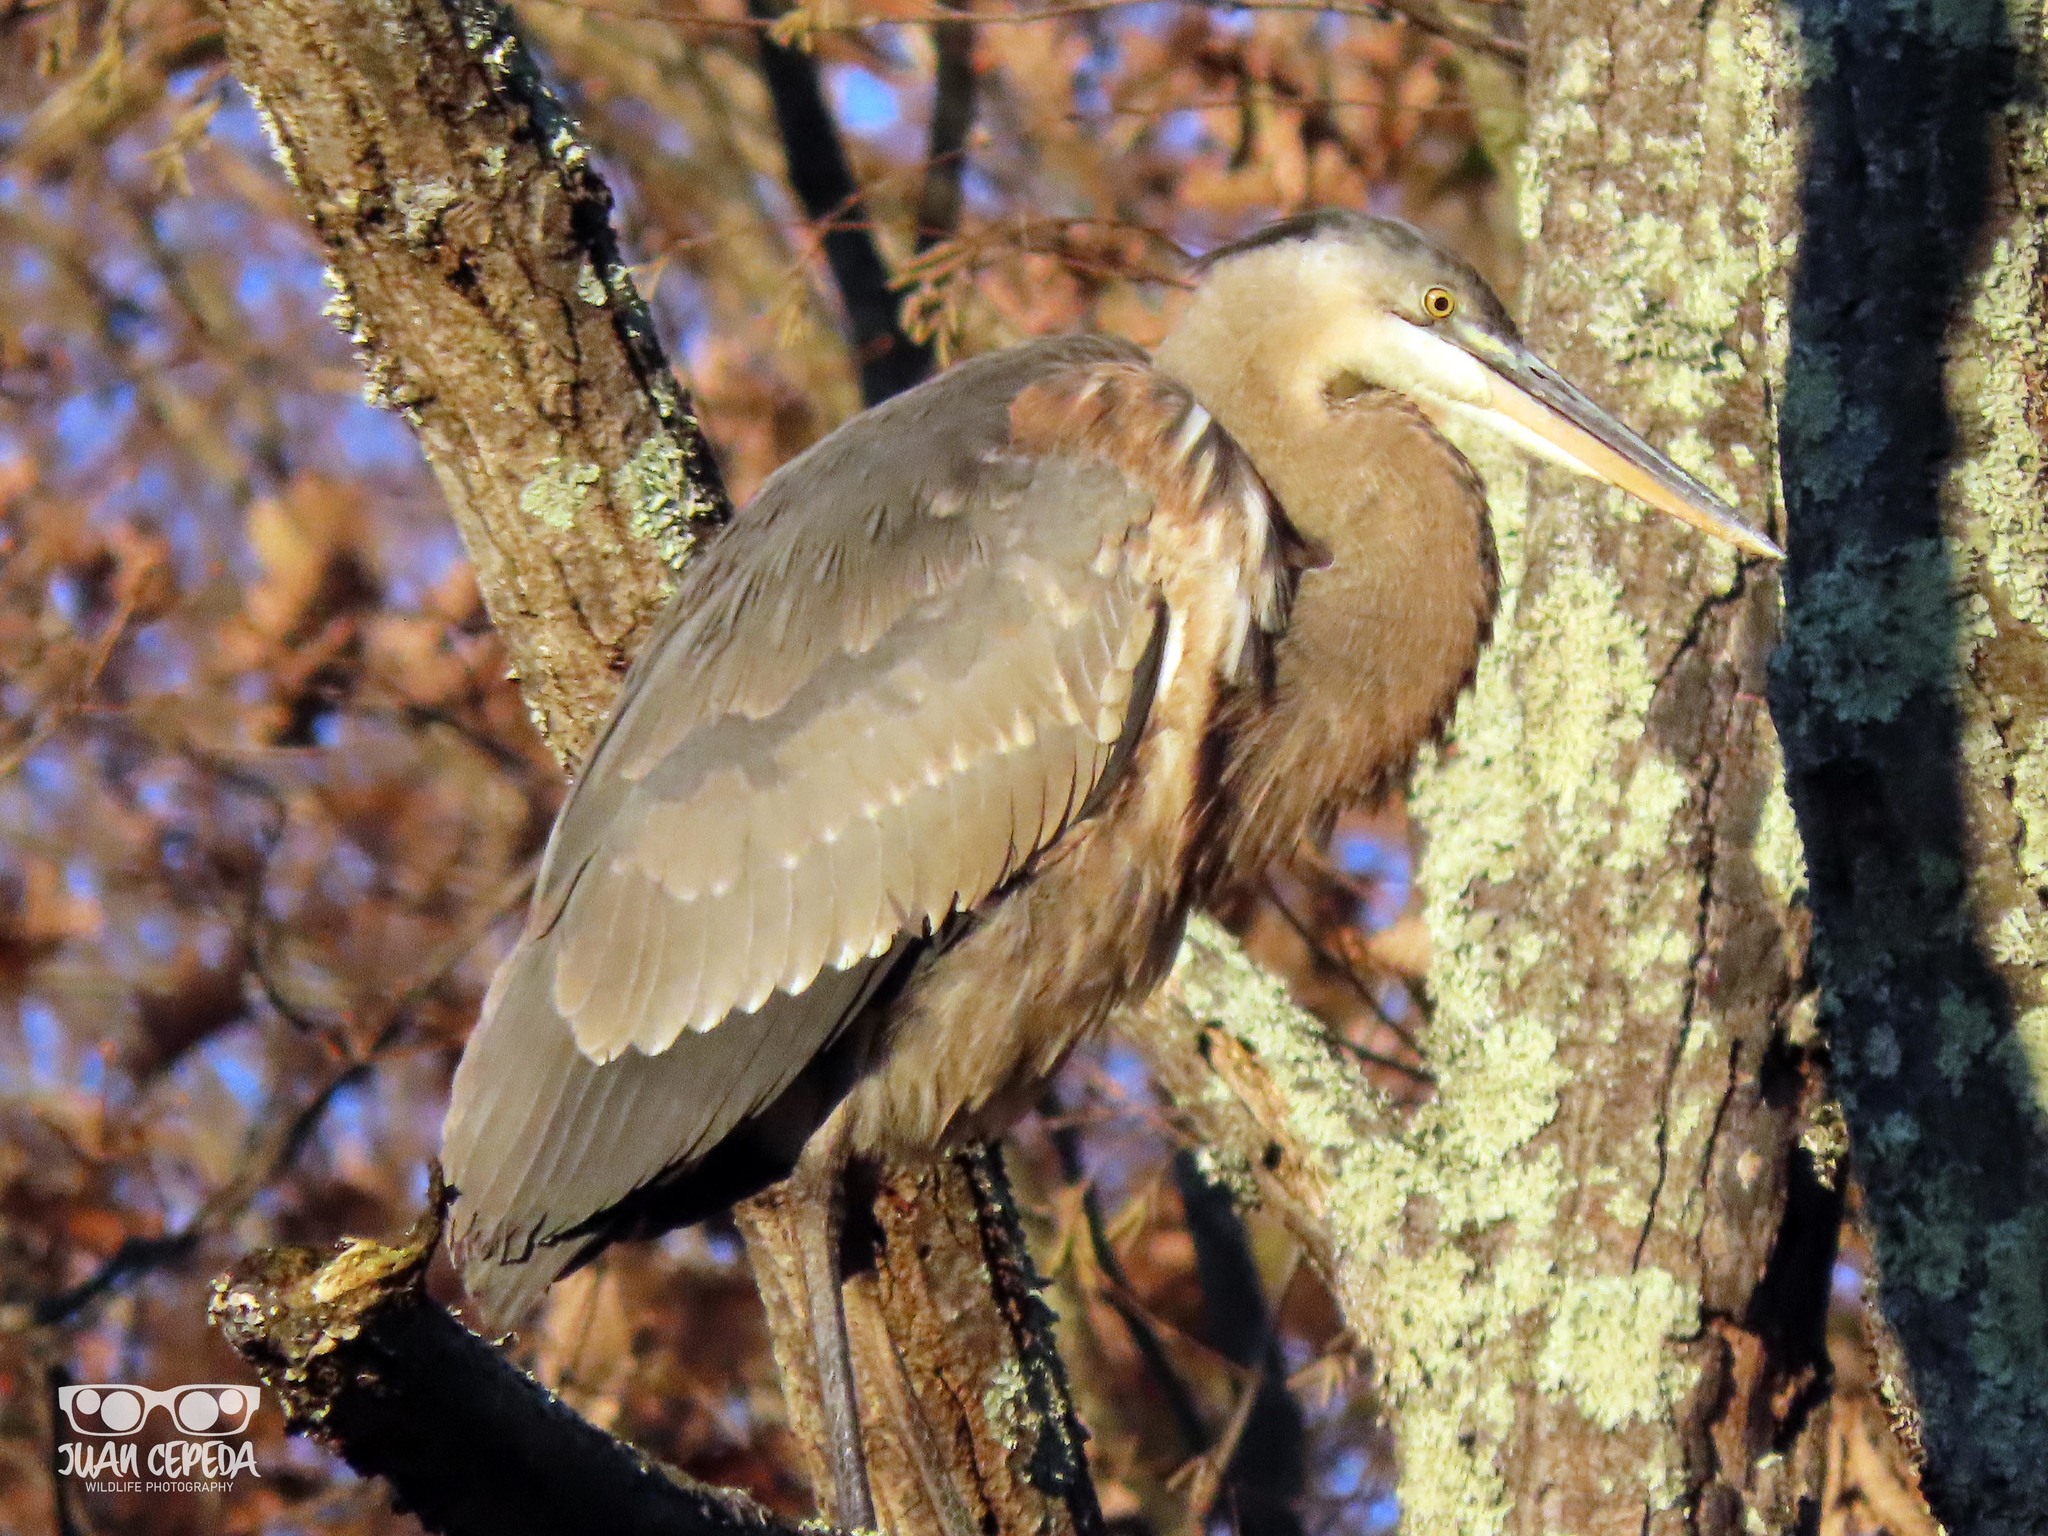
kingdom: Animalia
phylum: Chordata
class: Aves
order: Pelecaniformes
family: Ardeidae
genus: Ardea
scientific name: Ardea herodias
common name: Great blue heron
